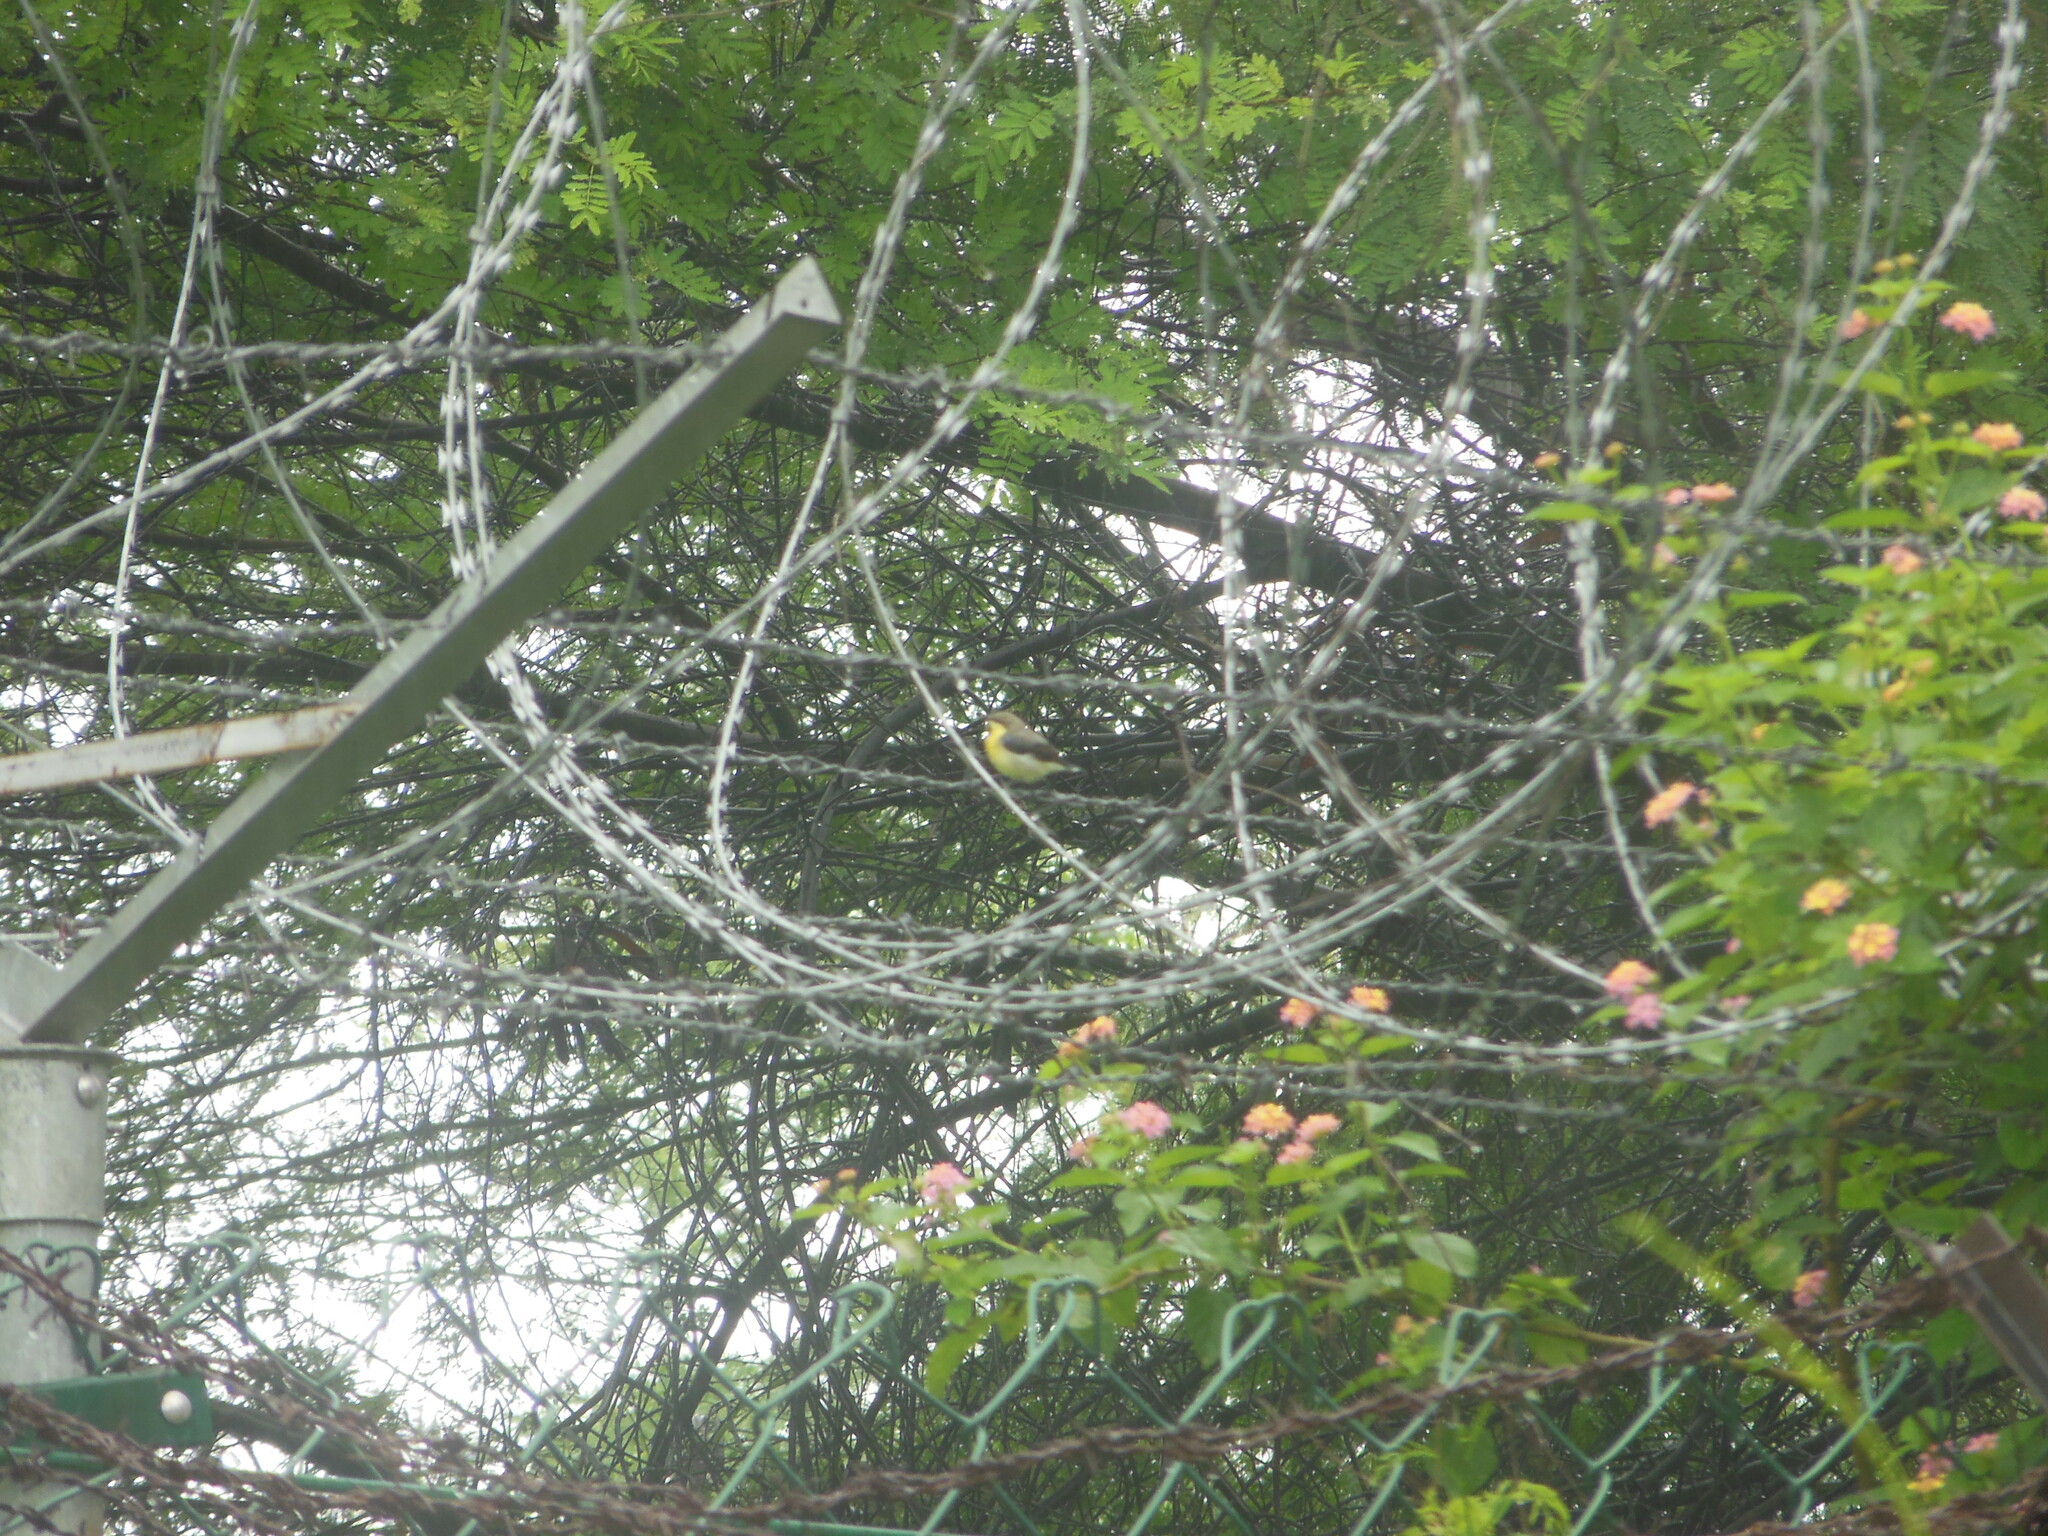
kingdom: Animalia
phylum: Chordata
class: Aves
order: Passeriformes
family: Nectariniidae
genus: Cinnyris
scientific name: Cinnyris asiaticus
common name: Purple sunbird
